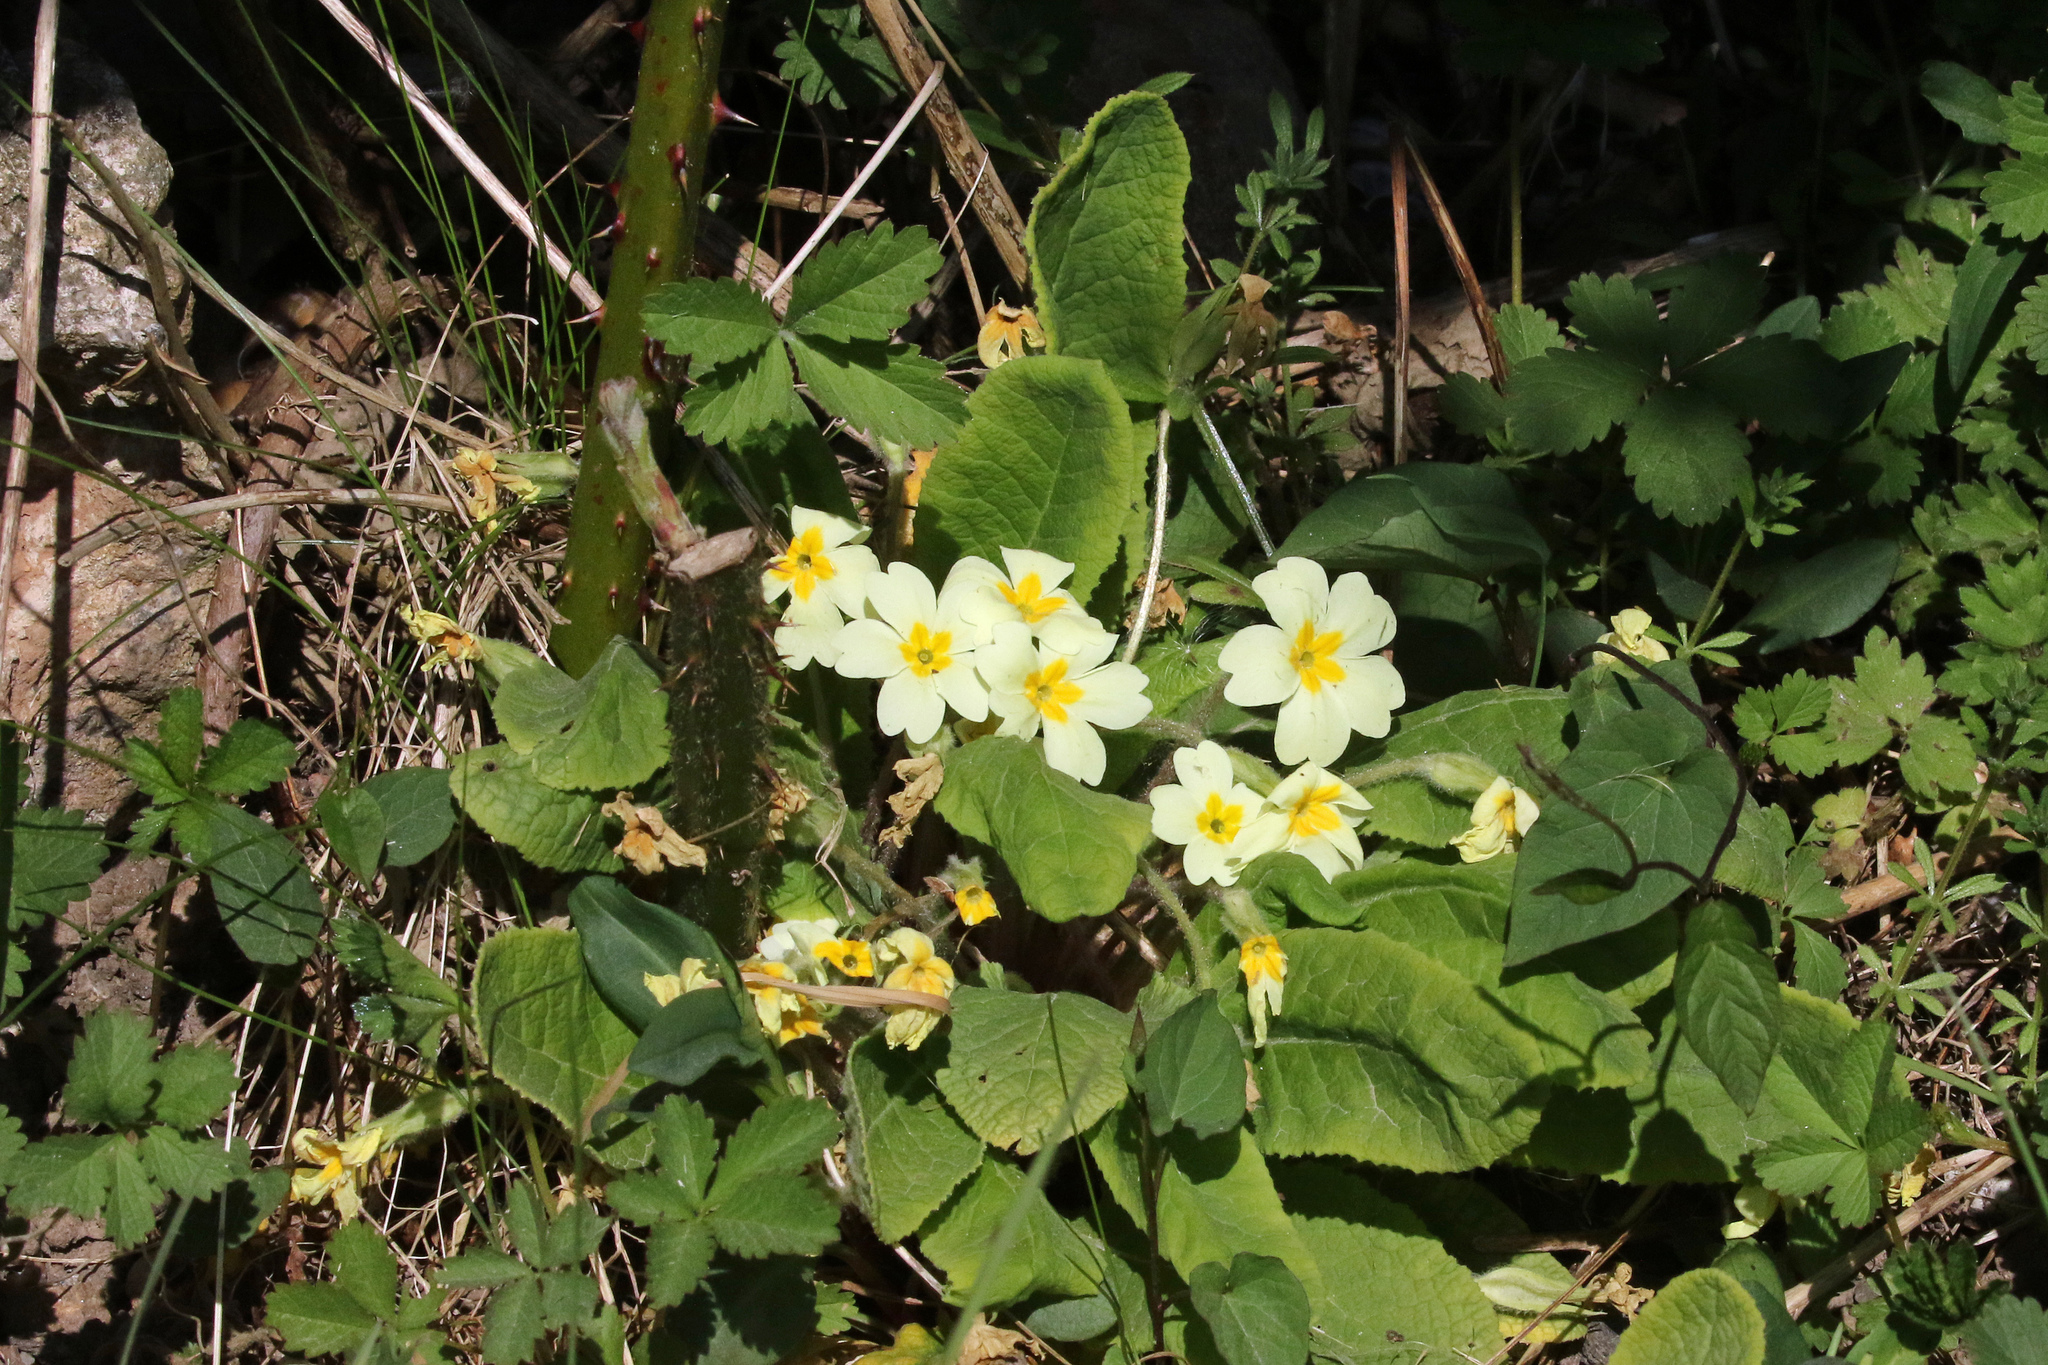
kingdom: Plantae
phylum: Tracheophyta
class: Magnoliopsida
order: Ericales
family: Primulaceae
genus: Primula
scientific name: Primula vulgaris
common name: Primrose
